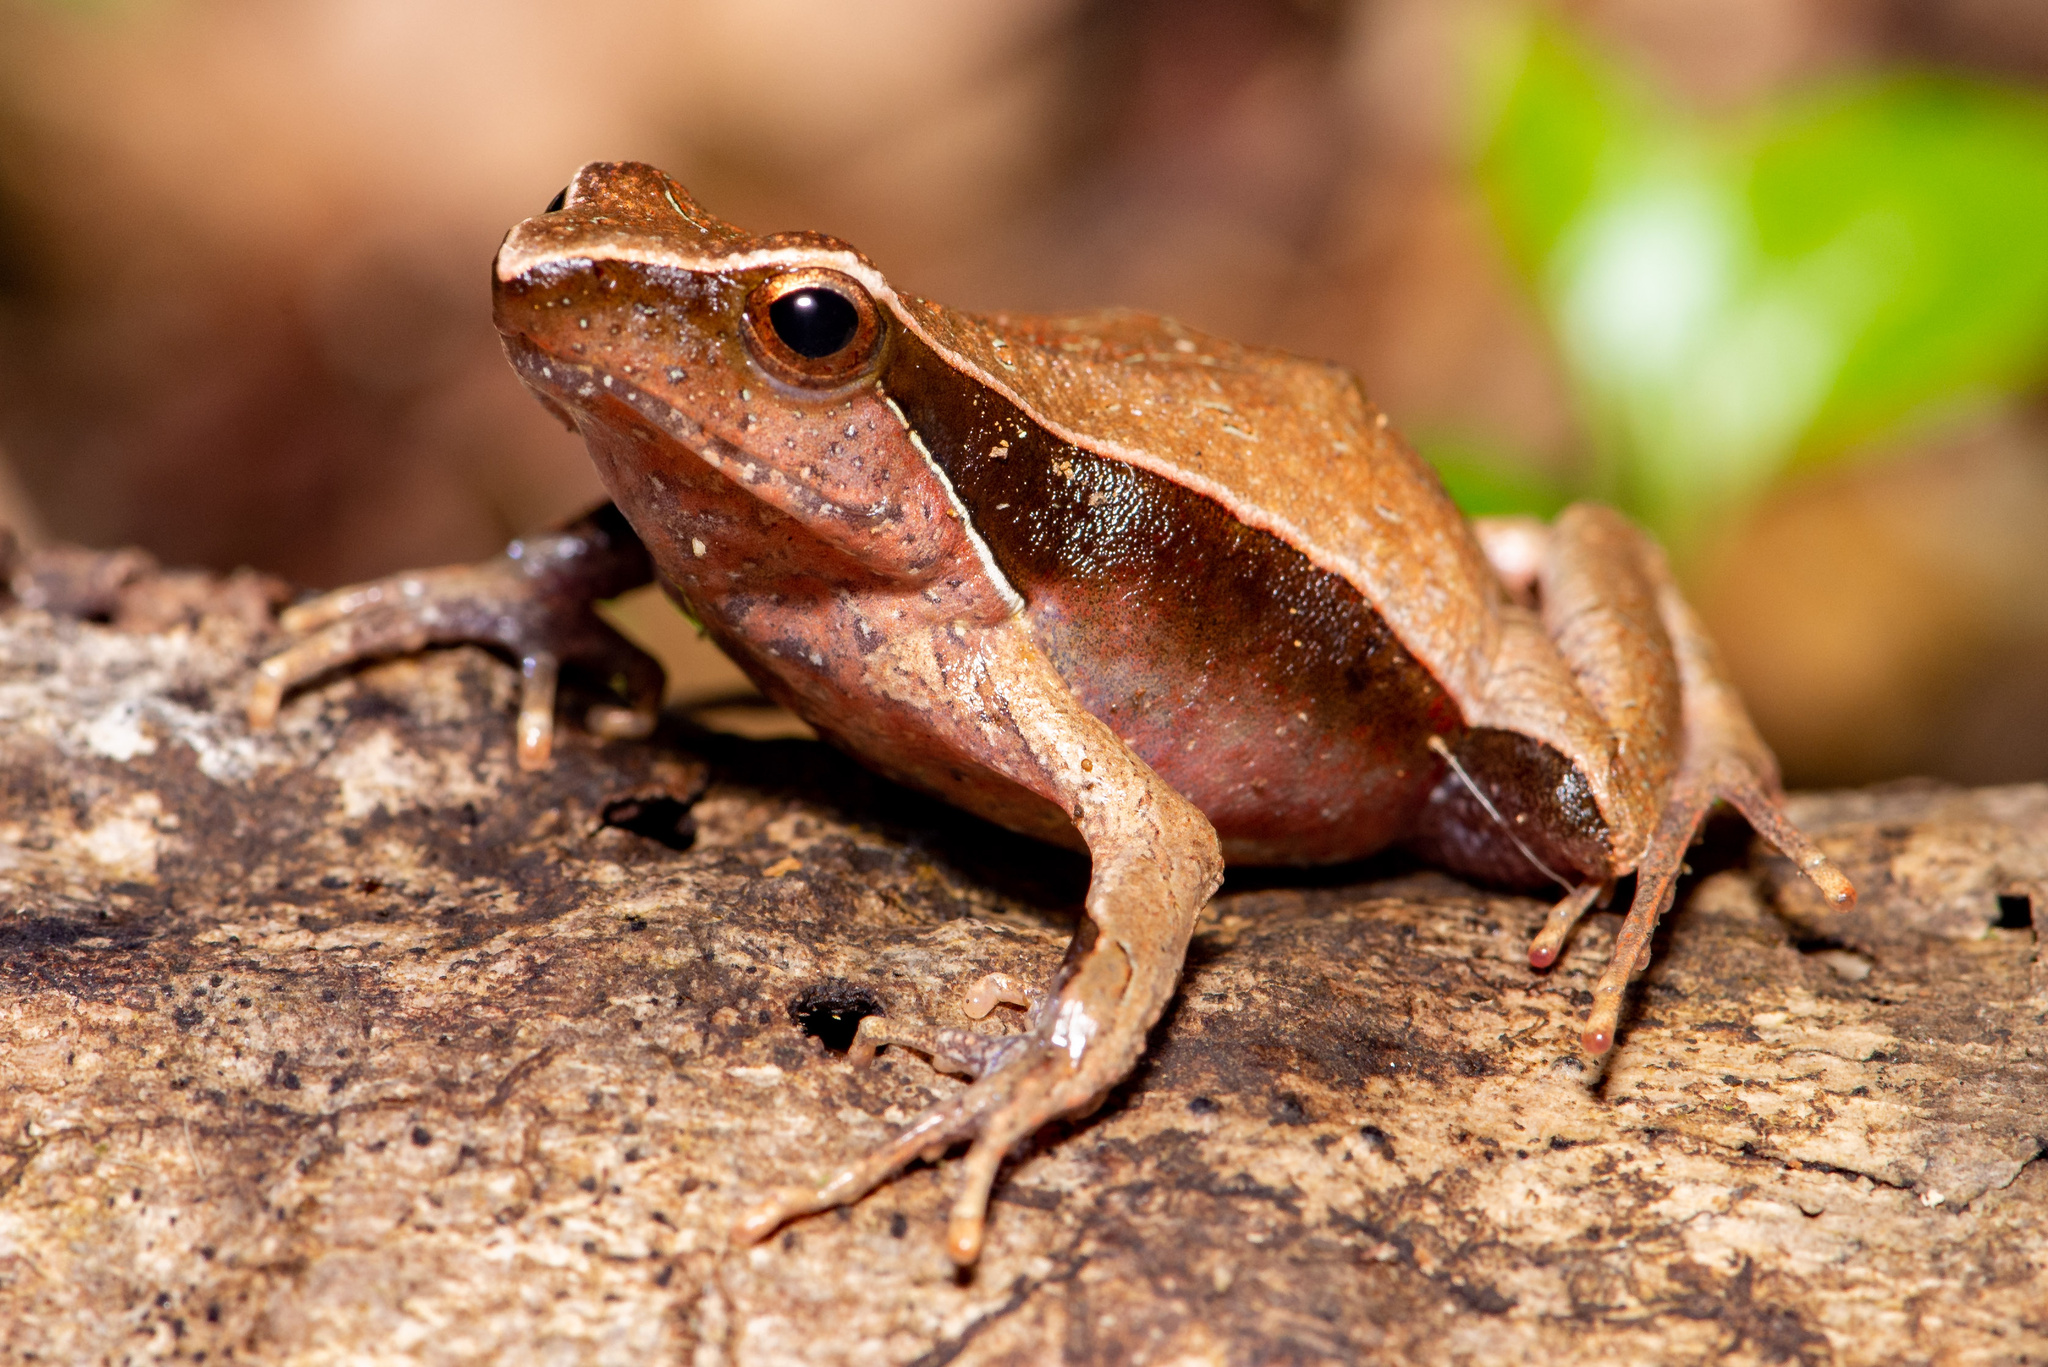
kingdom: Animalia
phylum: Chordata
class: Amphibia
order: Anura
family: Leptodactylidae
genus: Physalaemus
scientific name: Physalaemus lateristriga
